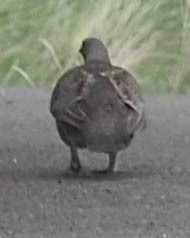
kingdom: Animalia
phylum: Chordata
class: Aves
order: Galliformes
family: Phasianidae
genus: Dendragapus
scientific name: Dendragapus obscurus
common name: Dusky grouse
